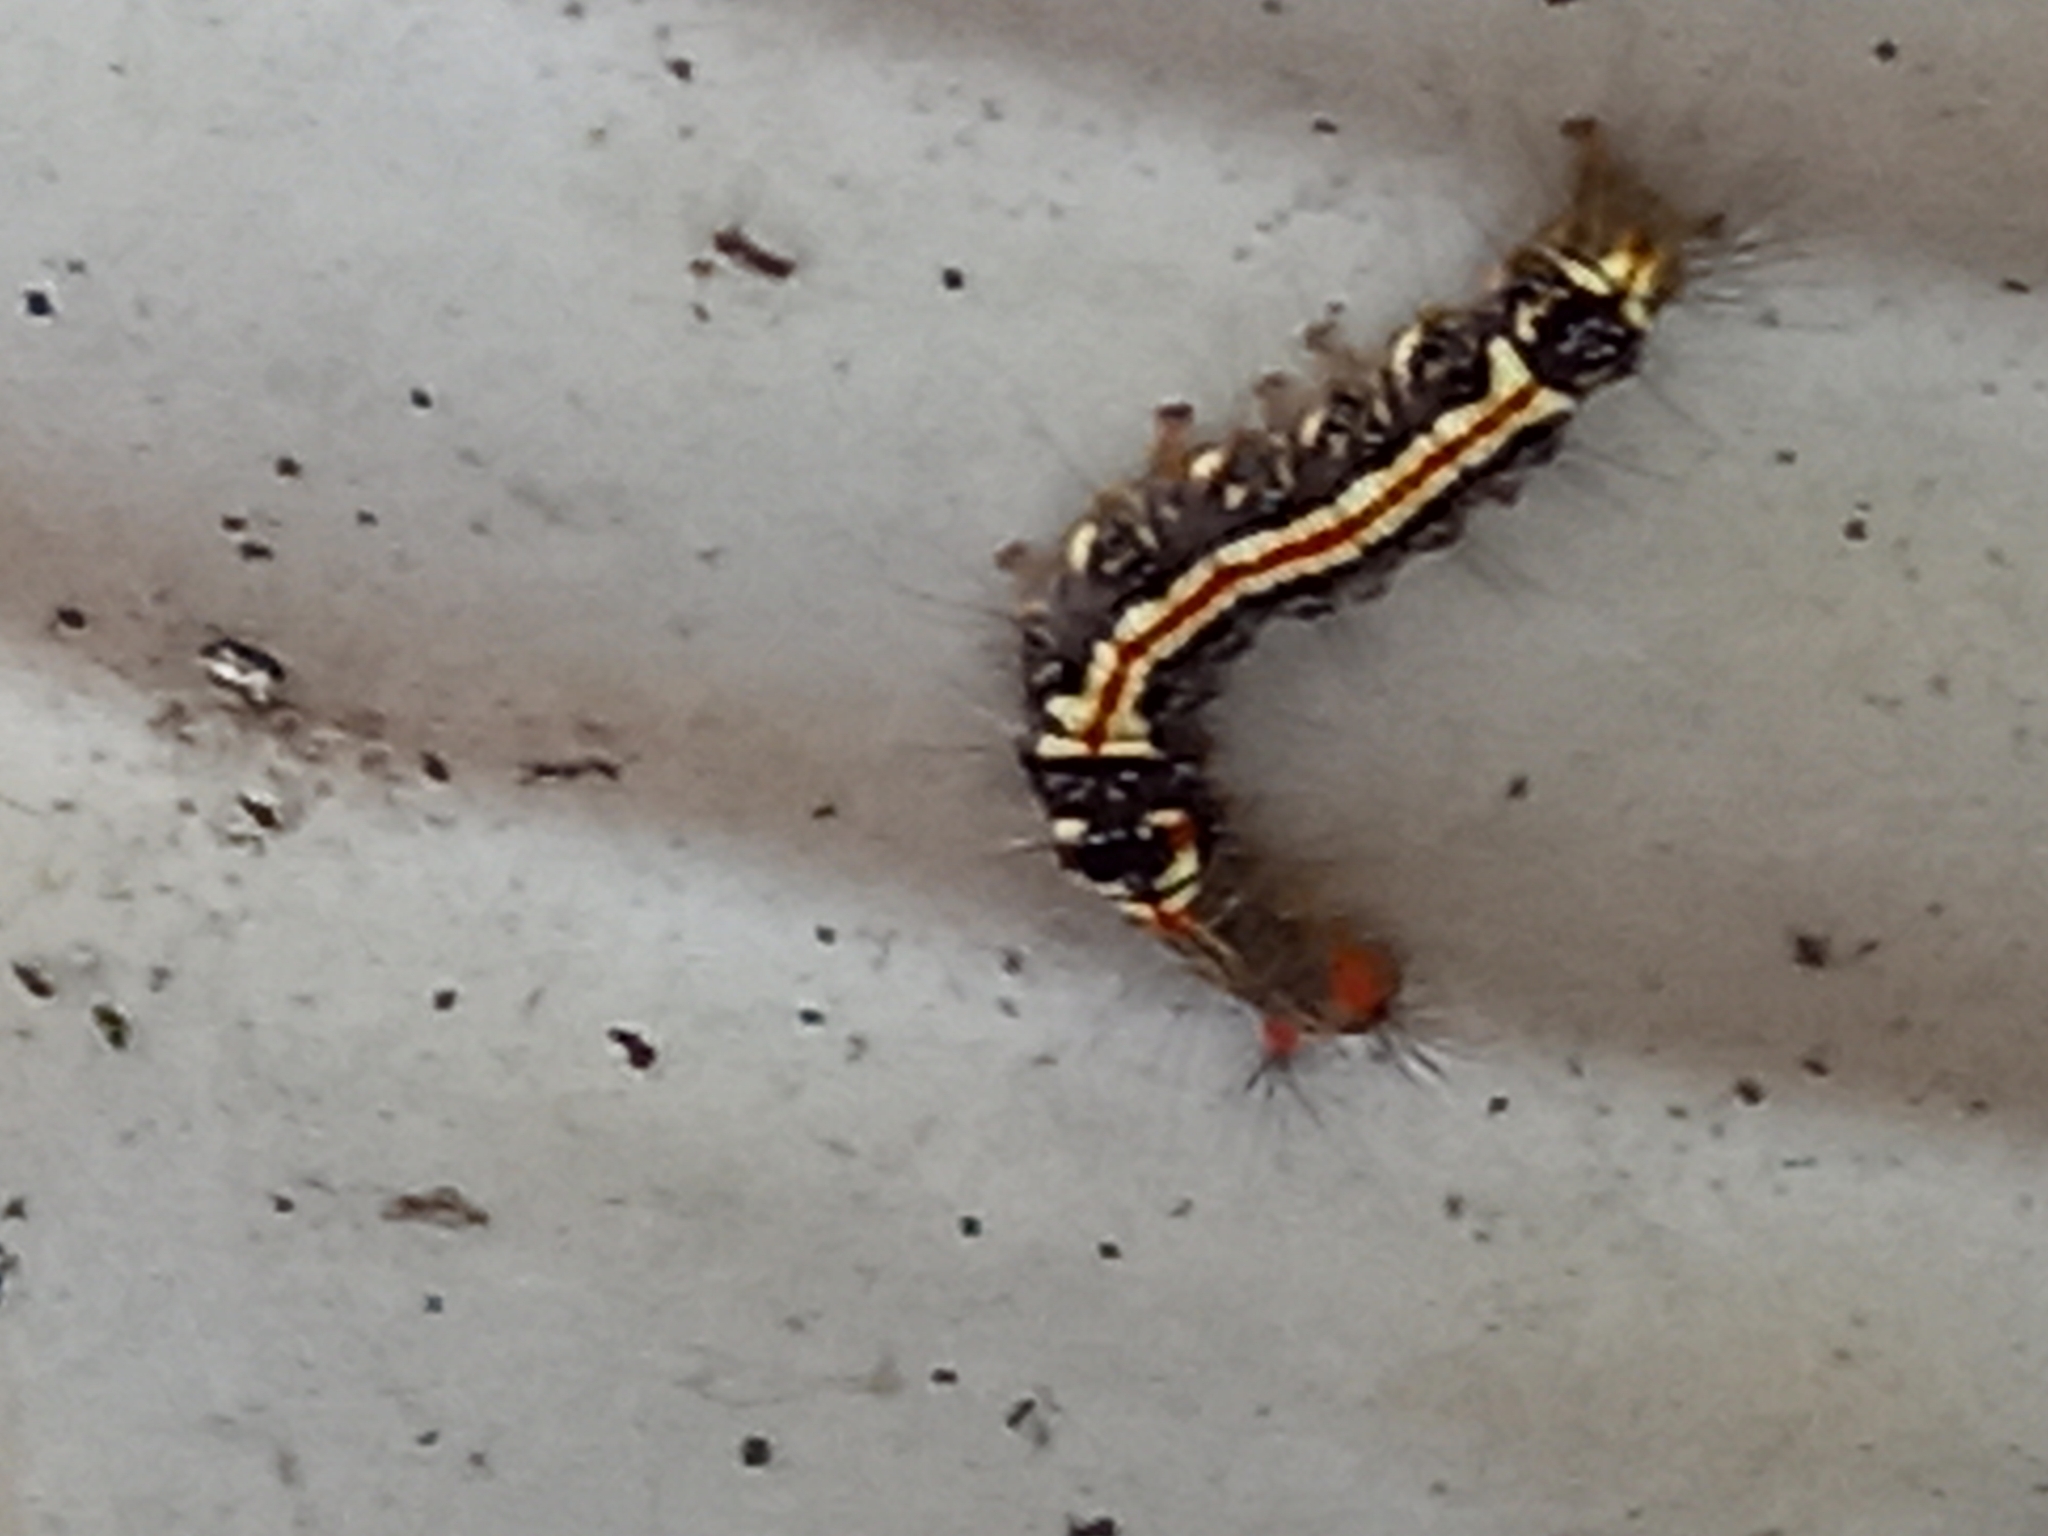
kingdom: Animalia
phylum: Arthropoda
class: Insecta
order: Lepidoptera
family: Erebidae
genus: Orvasca
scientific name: Orvasca subnotata
